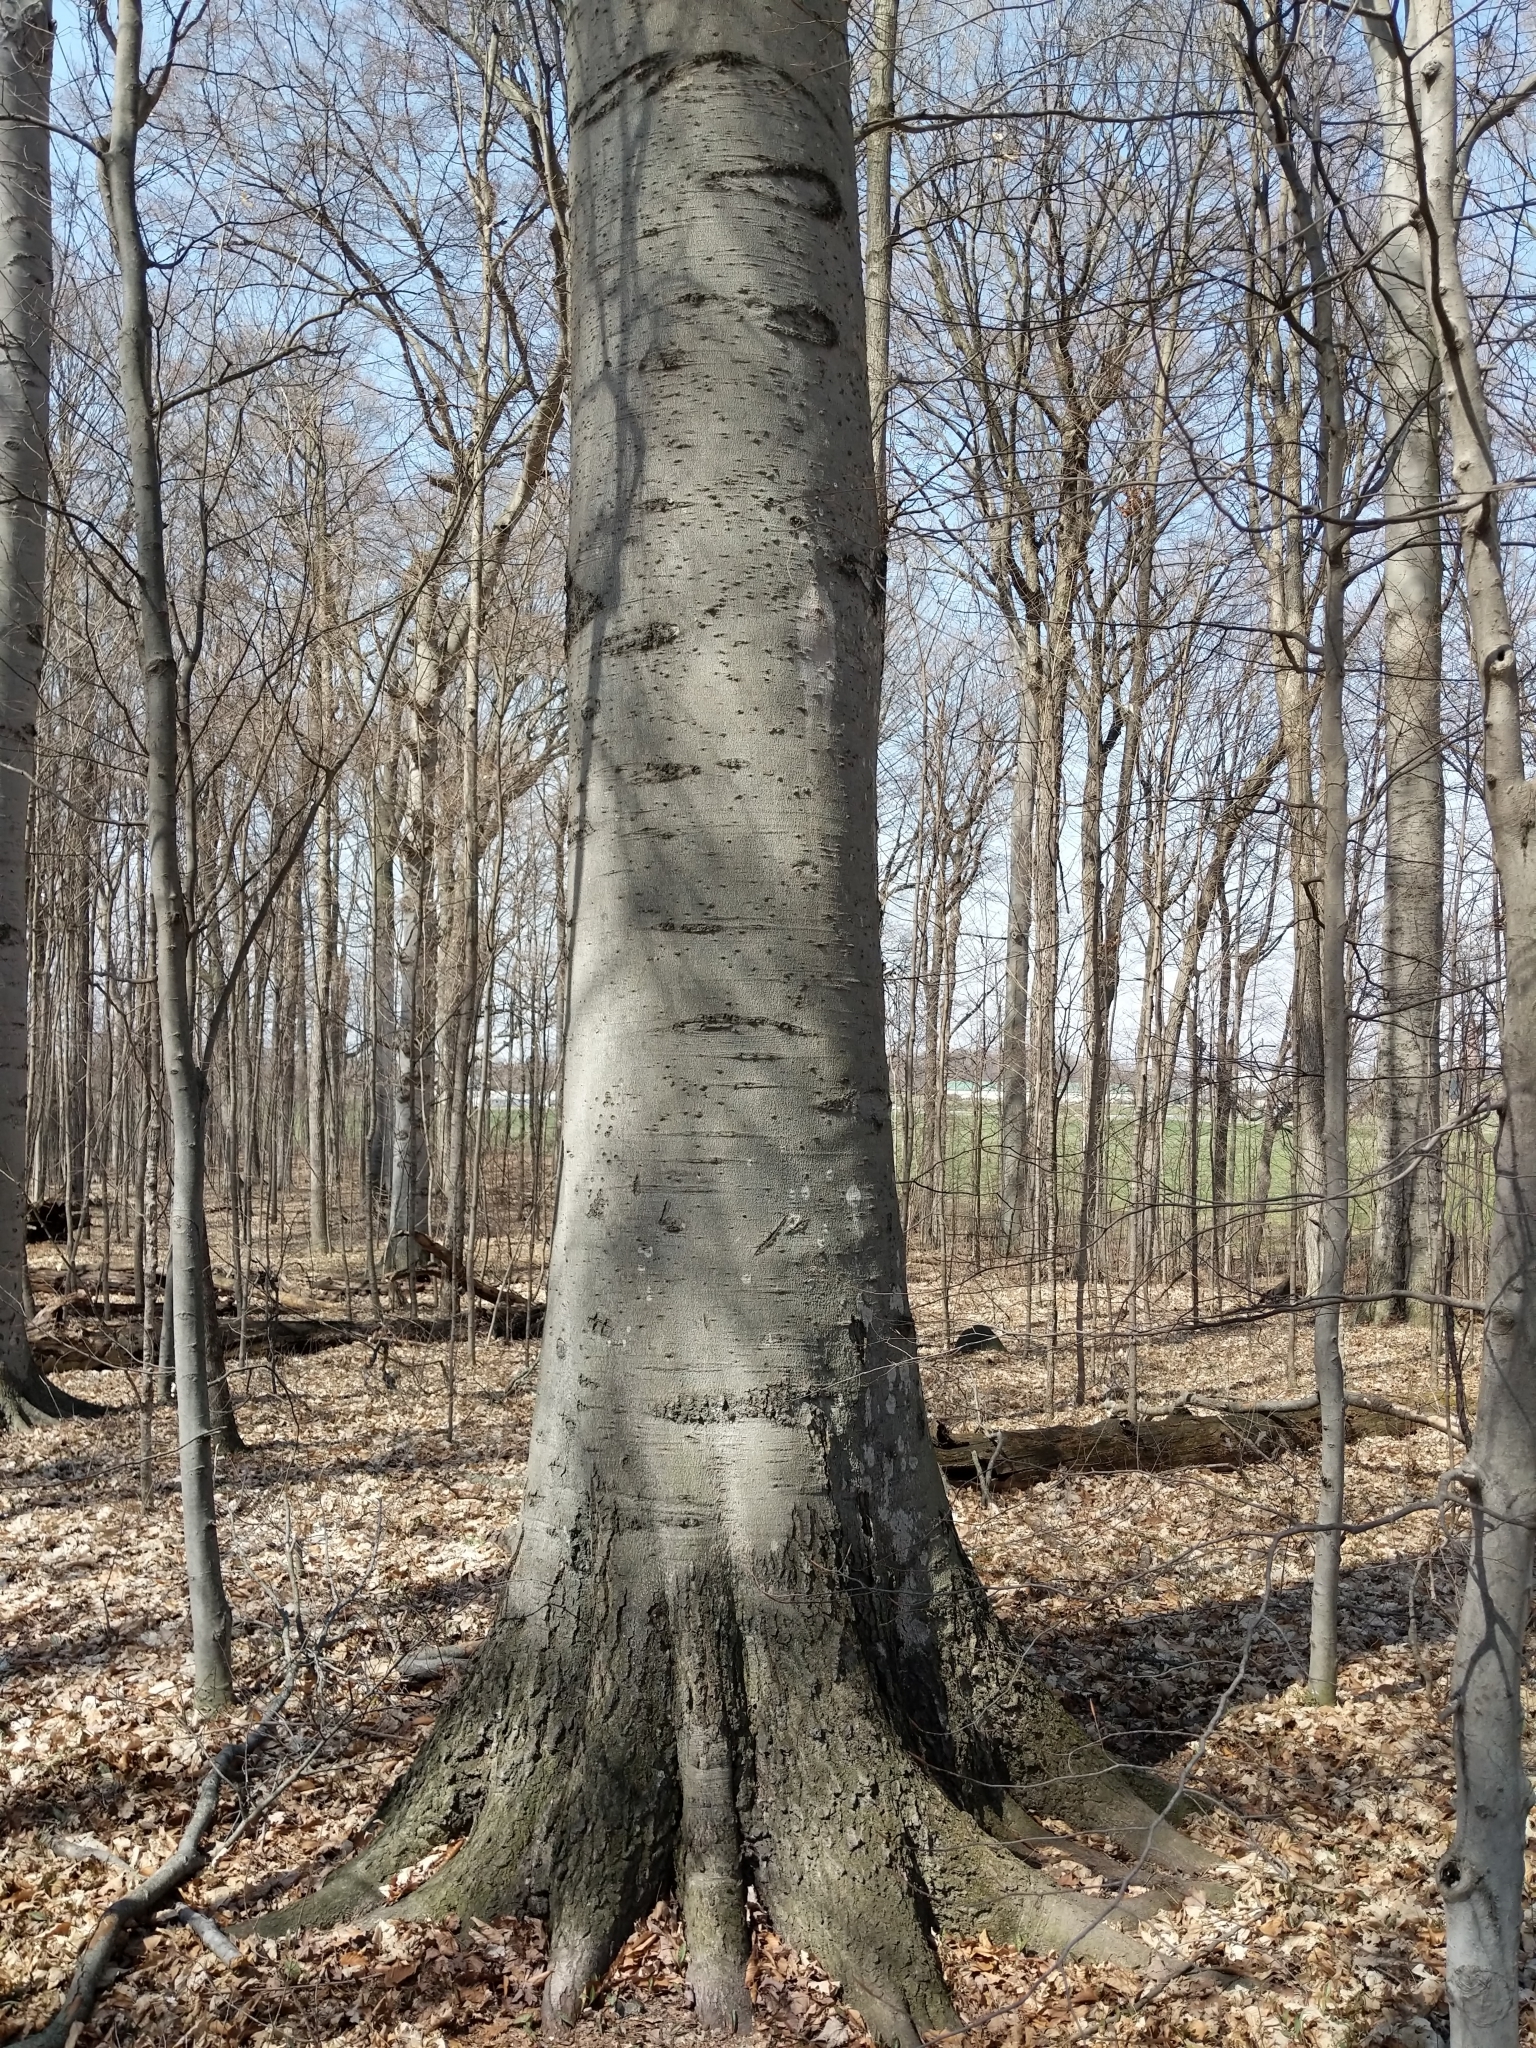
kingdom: Plantae
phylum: Tracheophyta
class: Magnoliopsida
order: Fagales
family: Fagaceae
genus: Fagus
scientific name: Fagus grandifolia
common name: American beech
